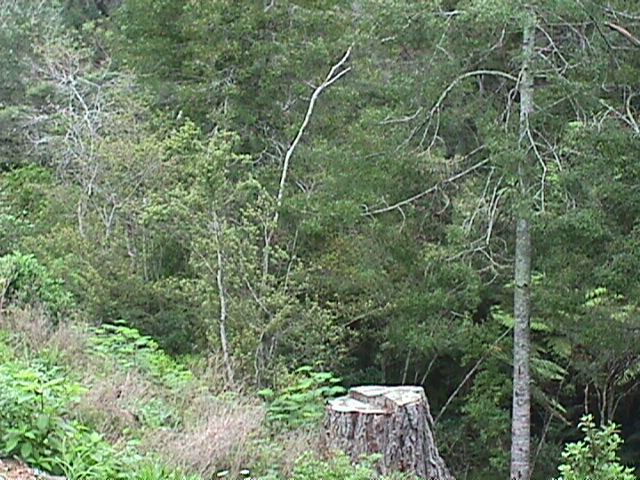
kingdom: Plantae
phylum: Tracheophyta
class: Pinopsida
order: Pinales
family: Phyllocladaceae
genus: Phyllocladus
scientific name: Phyllocladus trichomanoides
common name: Celery pine
